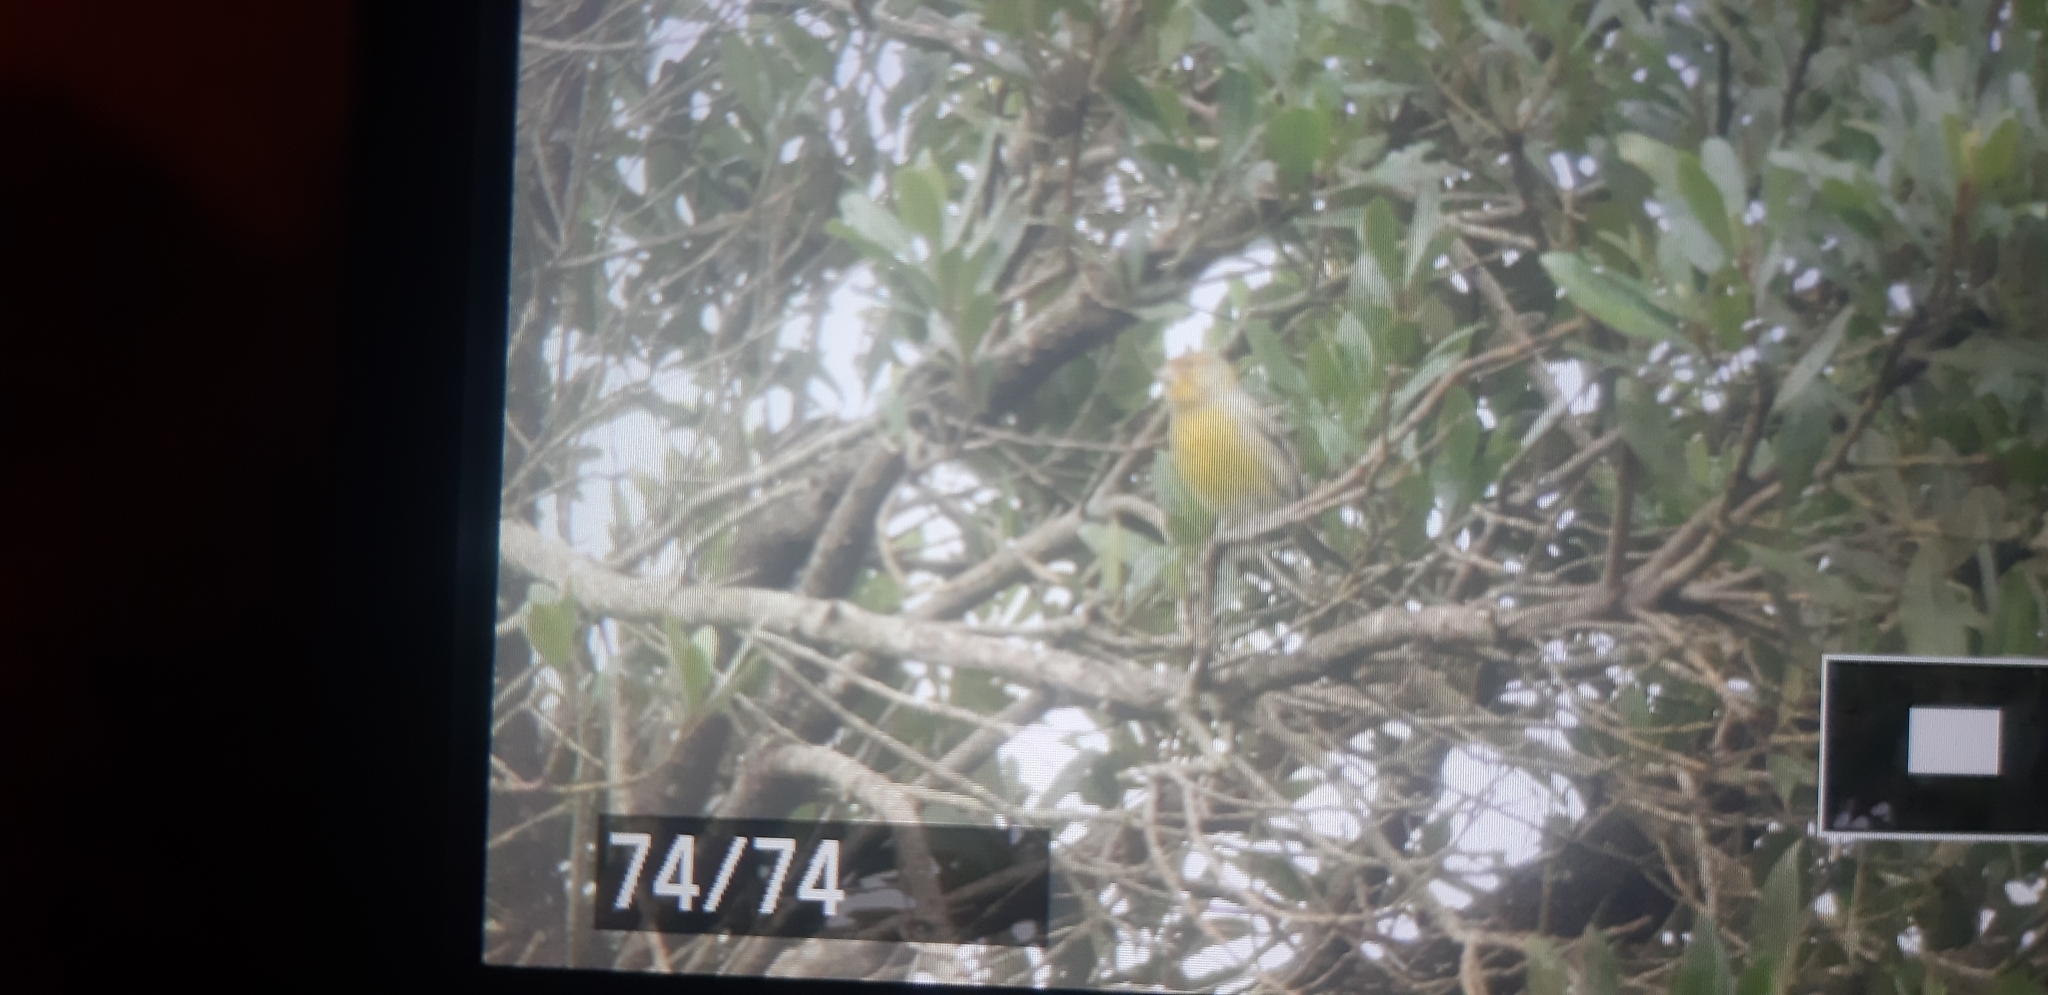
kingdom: Animalia
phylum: Chordata
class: Aves
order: Passeriformes
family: Fringillidae
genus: Serinus
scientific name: Serinus canaria
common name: Atlantic canary
